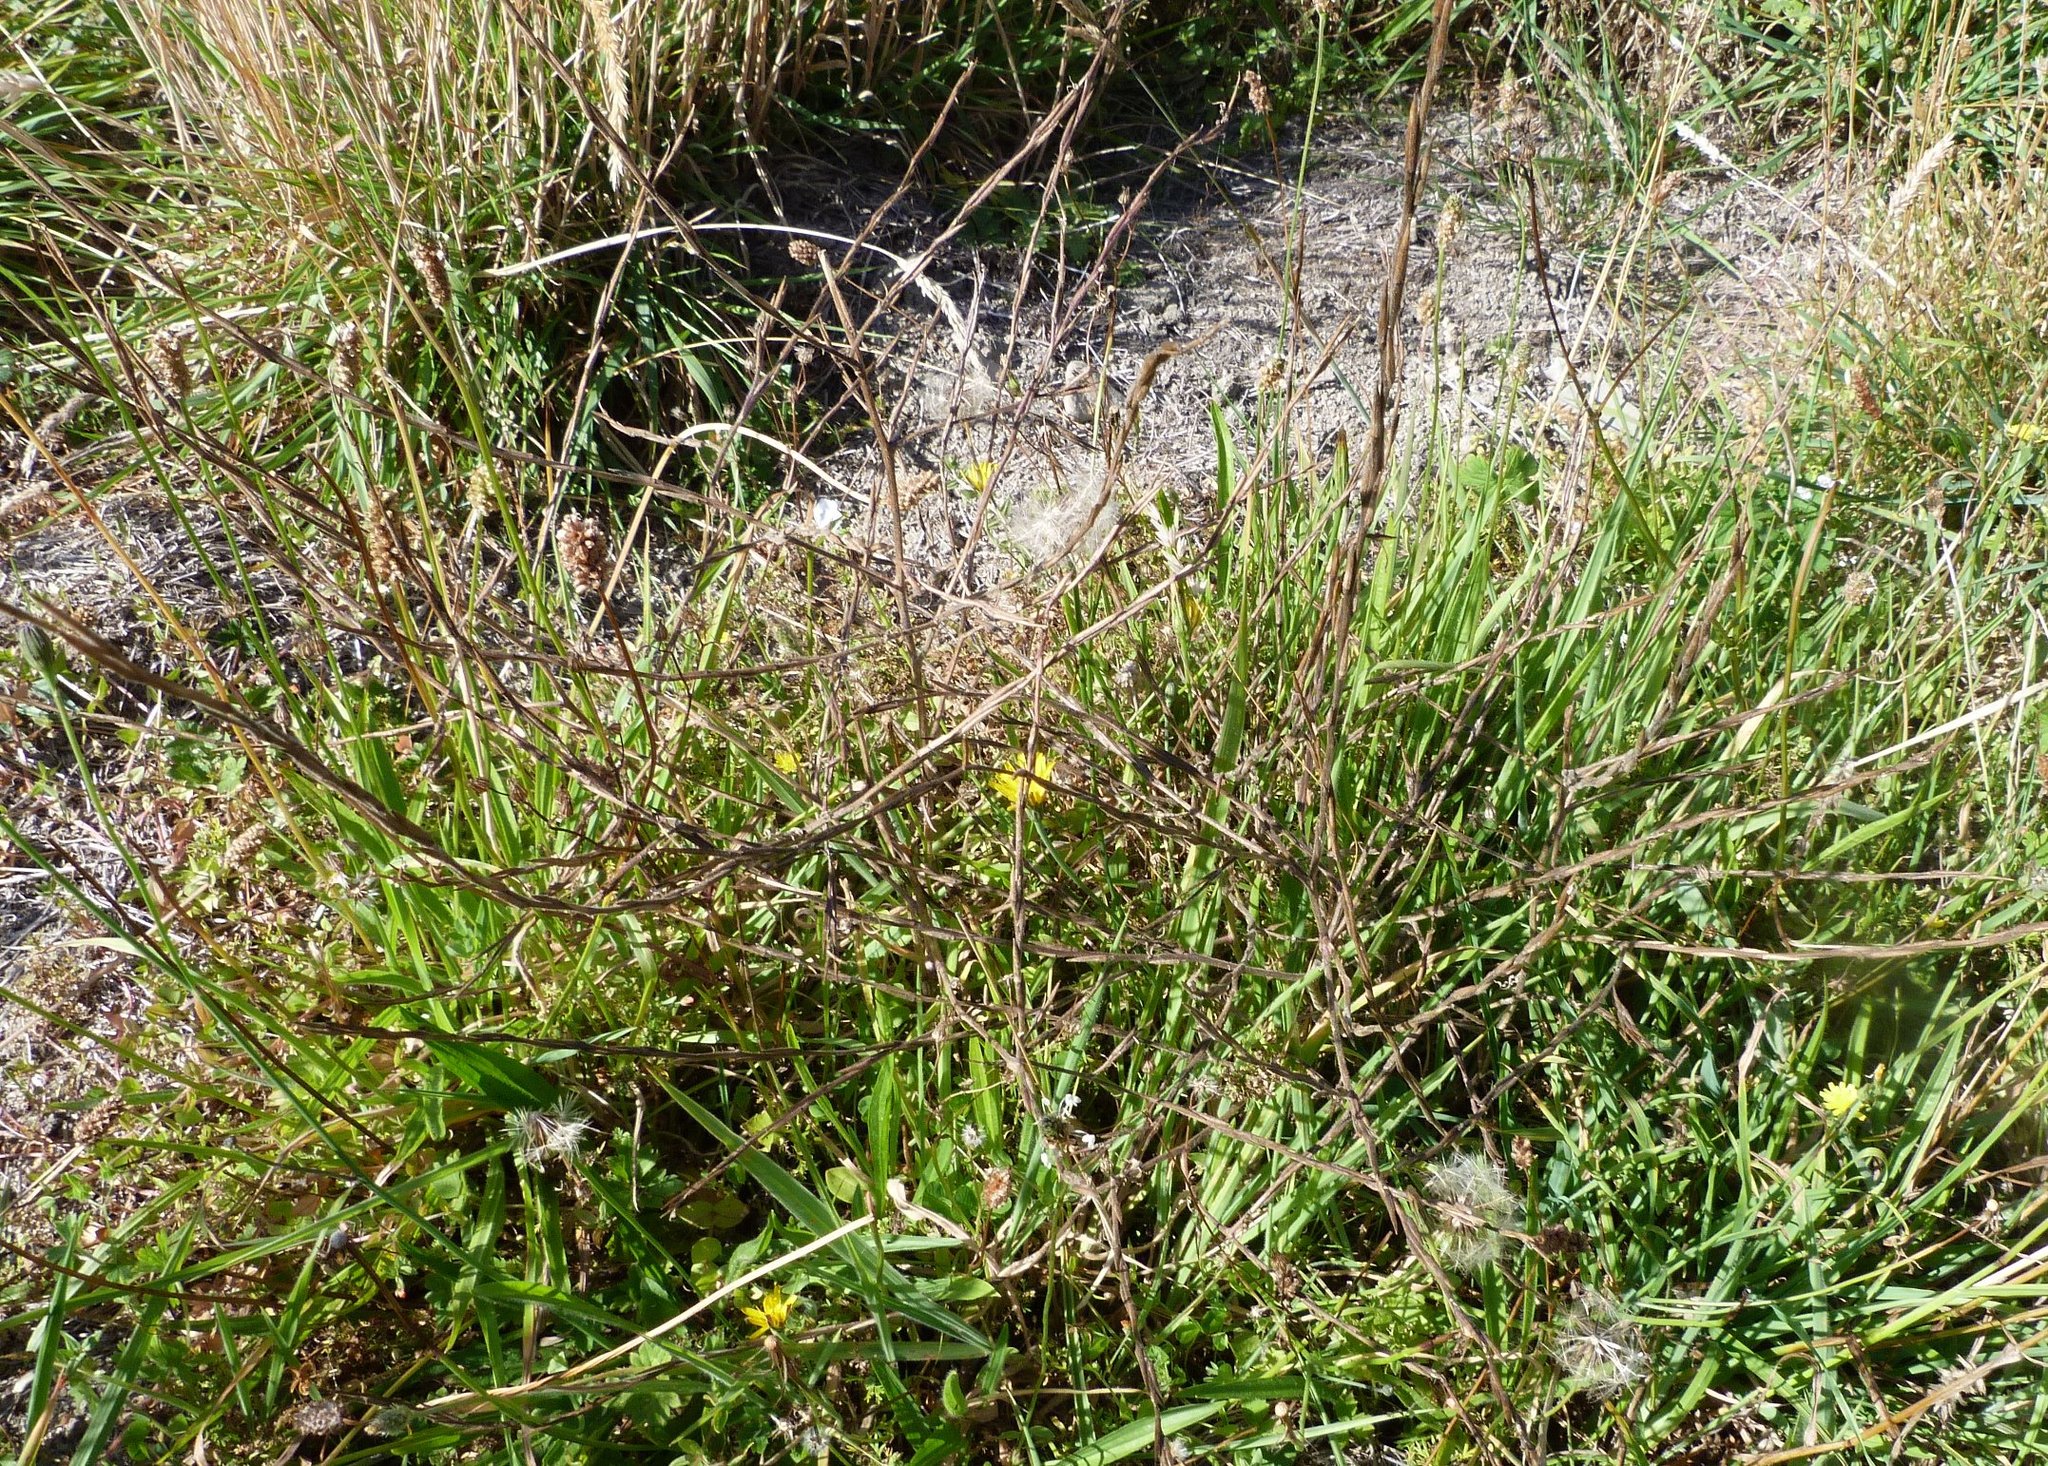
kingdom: Plantae
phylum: Tracheophyta
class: Magnoliopsida
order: Brassicales
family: Brassicaceae
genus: Sisymbrium
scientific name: Sisymbrium officinale
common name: Hedge mustard
